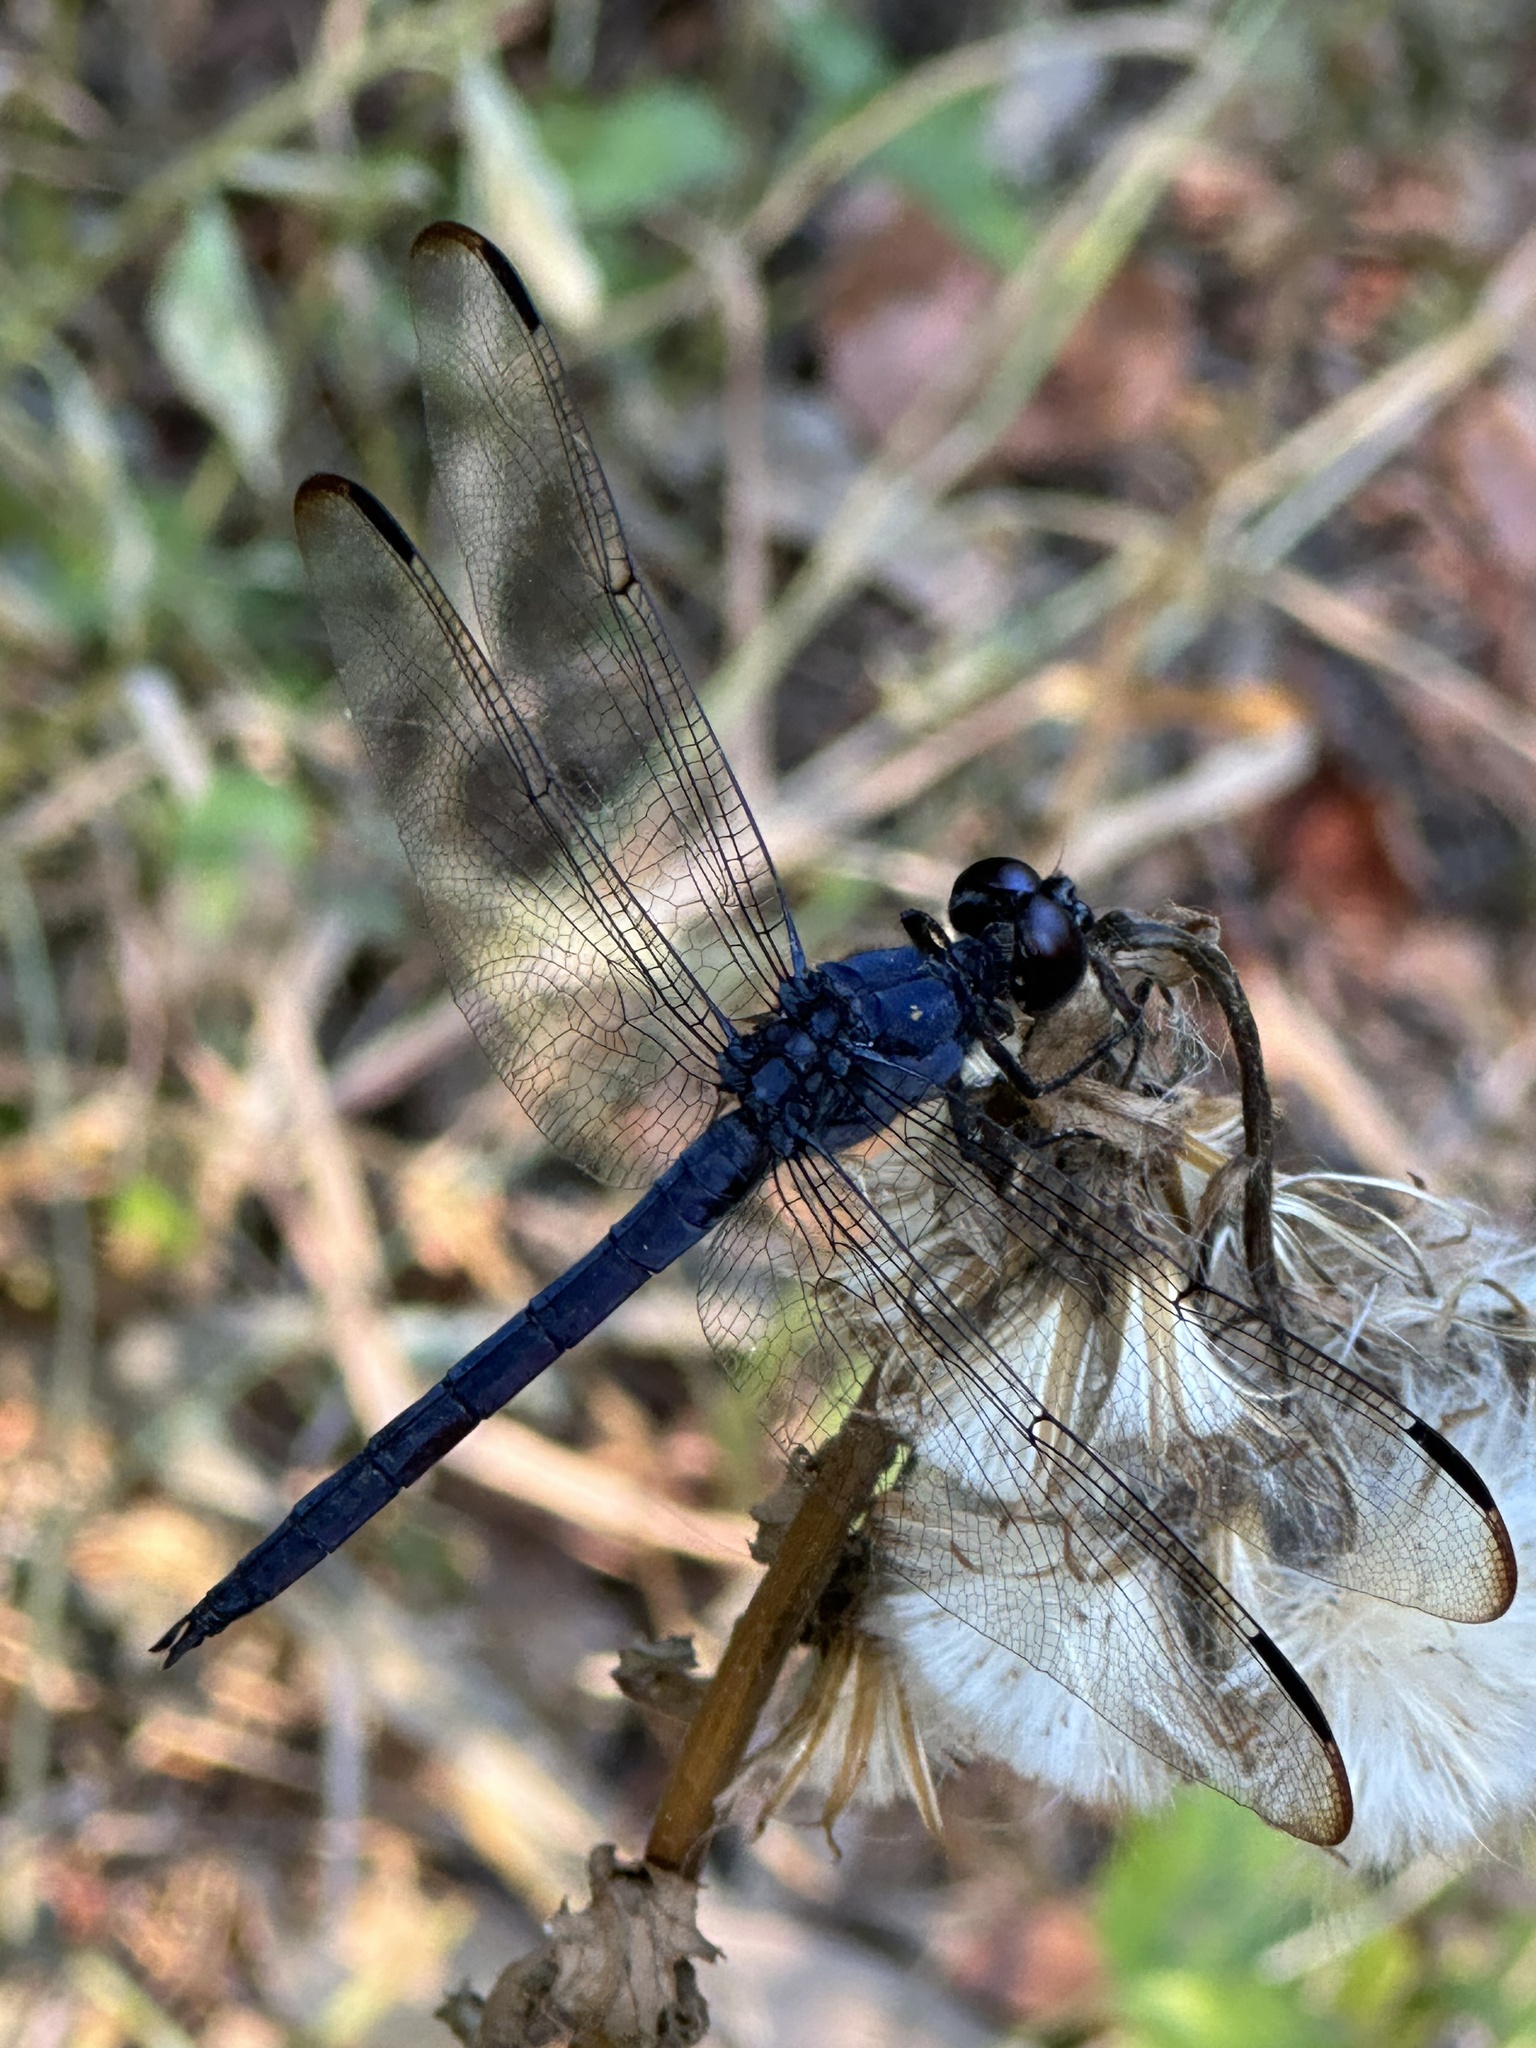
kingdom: Animalia
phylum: Arthropoda
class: Insecta
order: Odonata
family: Libellulidae
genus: Libellula
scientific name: Libellula incesta
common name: Slaty skimmer
